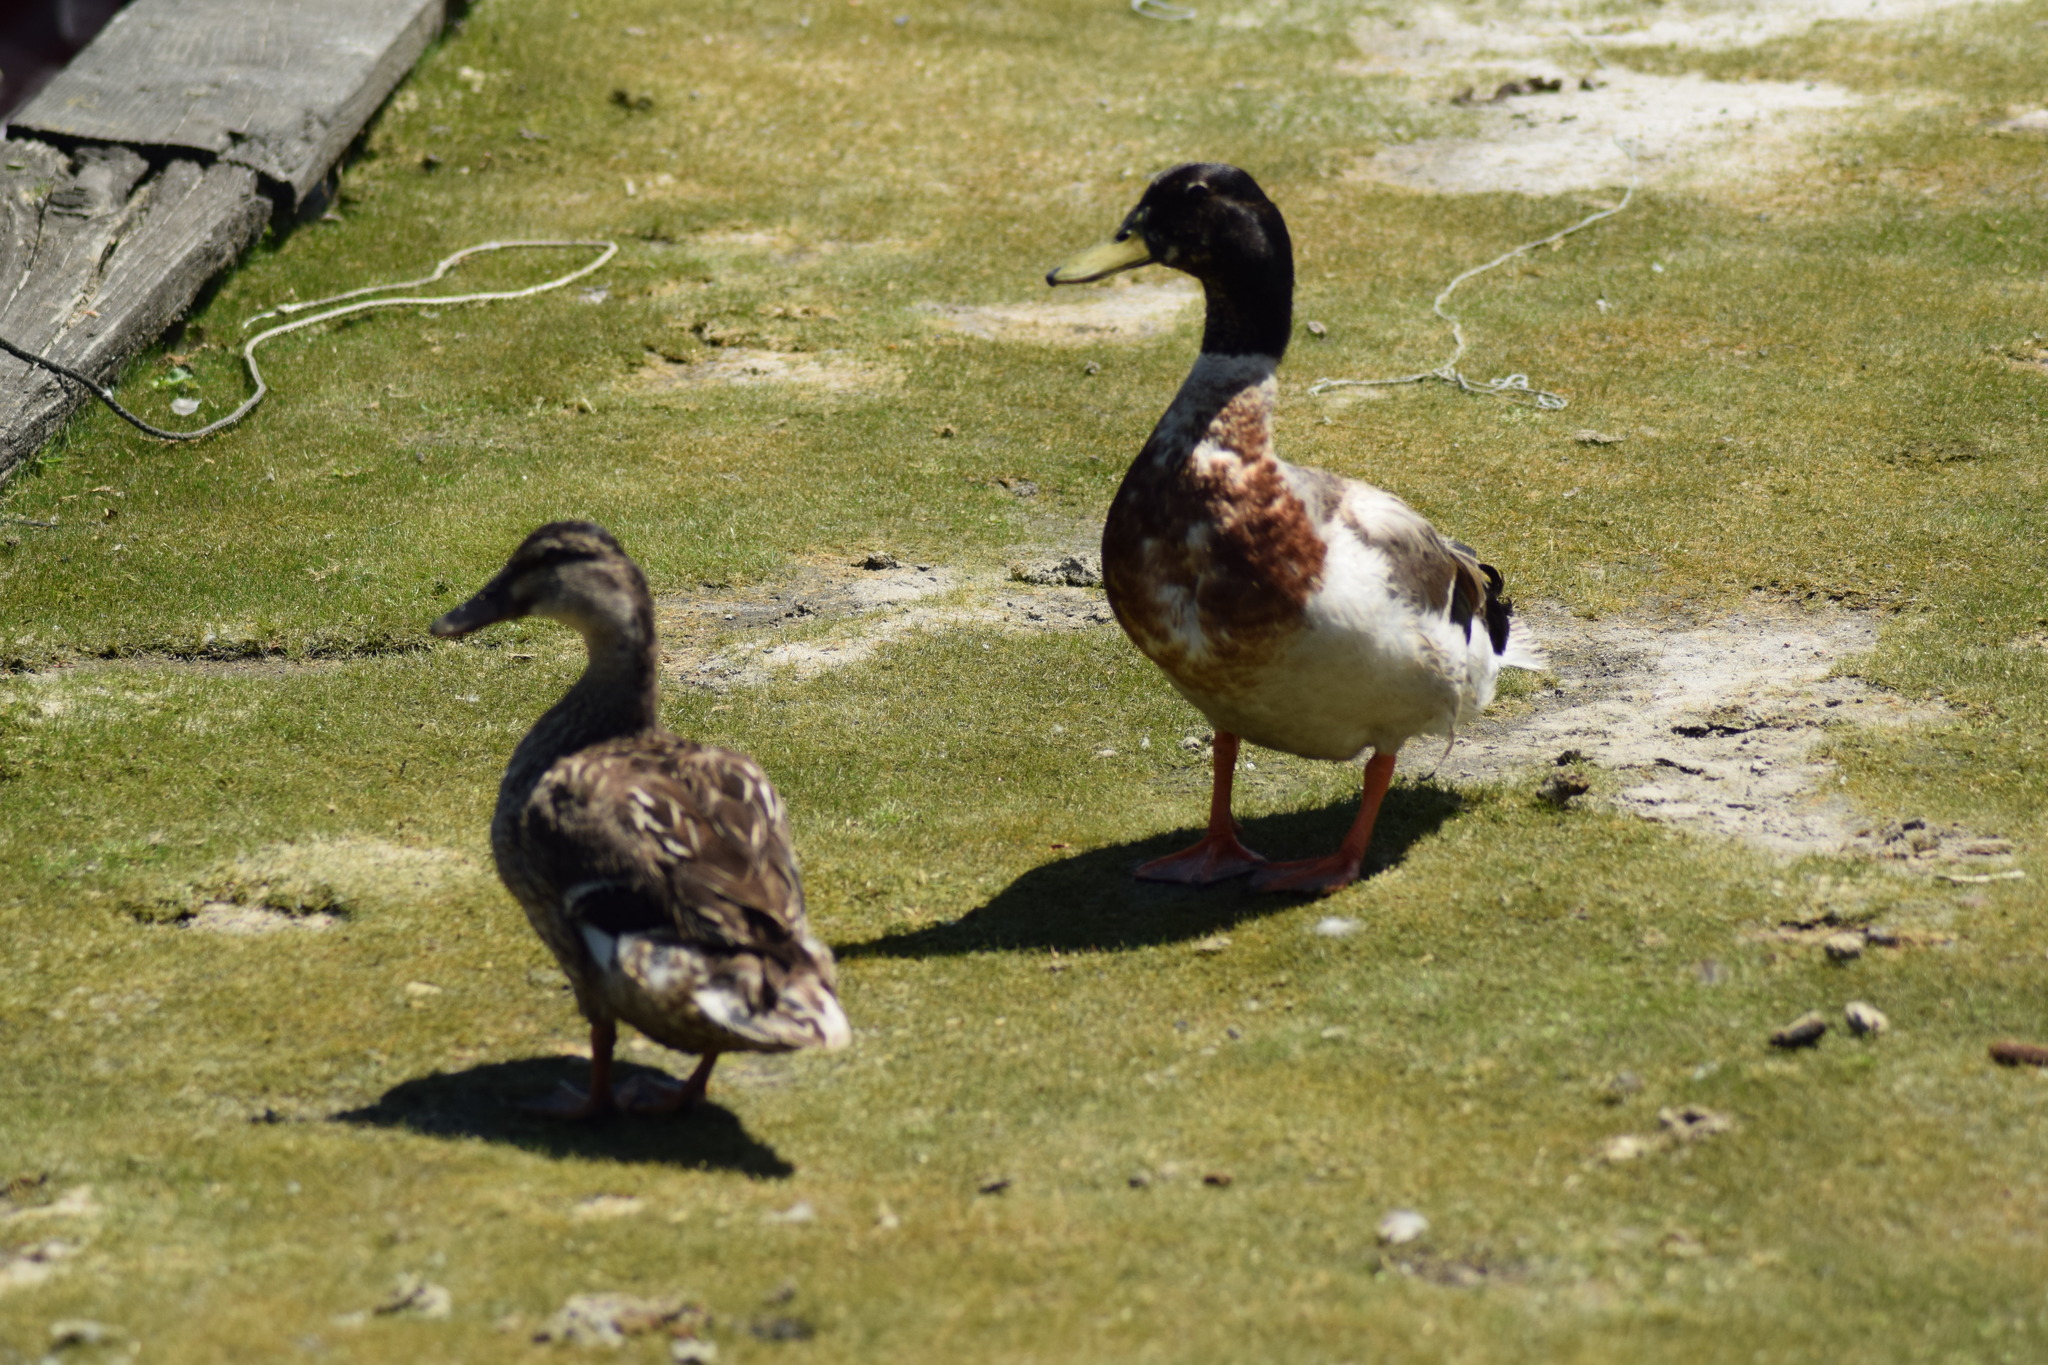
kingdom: Animalia
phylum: Chordata
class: Aves
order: Anseriformes
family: Anatidae
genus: Anas
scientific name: Anas platyrhynchos
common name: Mallard
